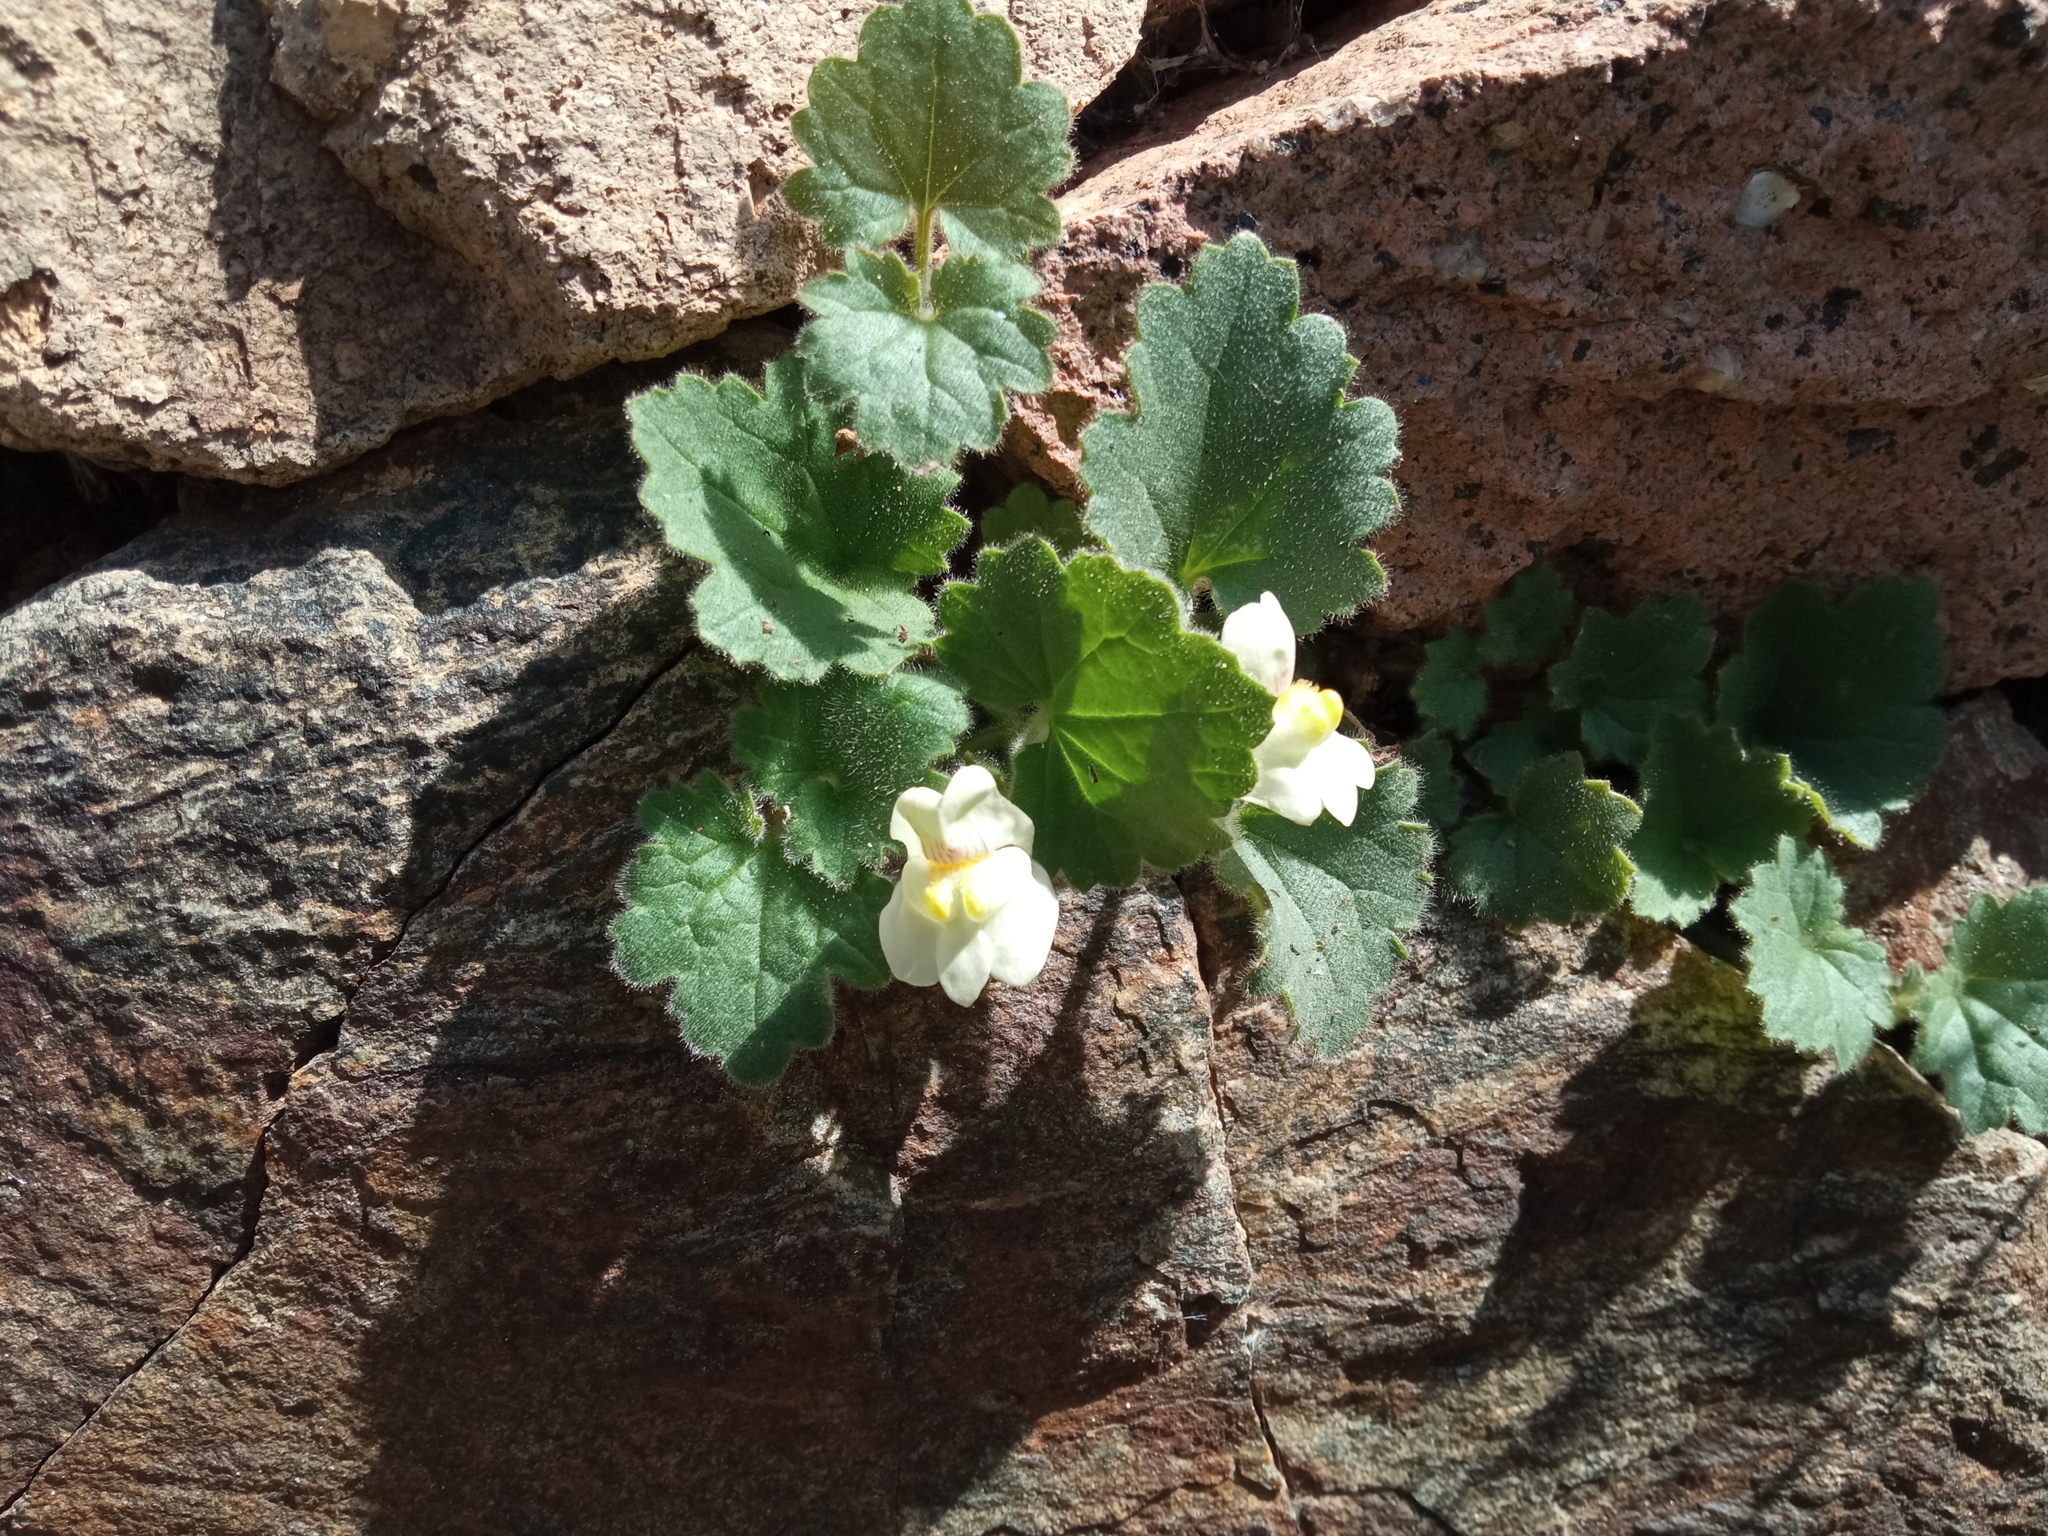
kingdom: Plantae
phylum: Tracheophyta
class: Magnoliopsida
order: Lamiales
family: Plantaginaceae
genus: Asarina
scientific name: Asarina procumbens
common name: Trailing snapdragon
